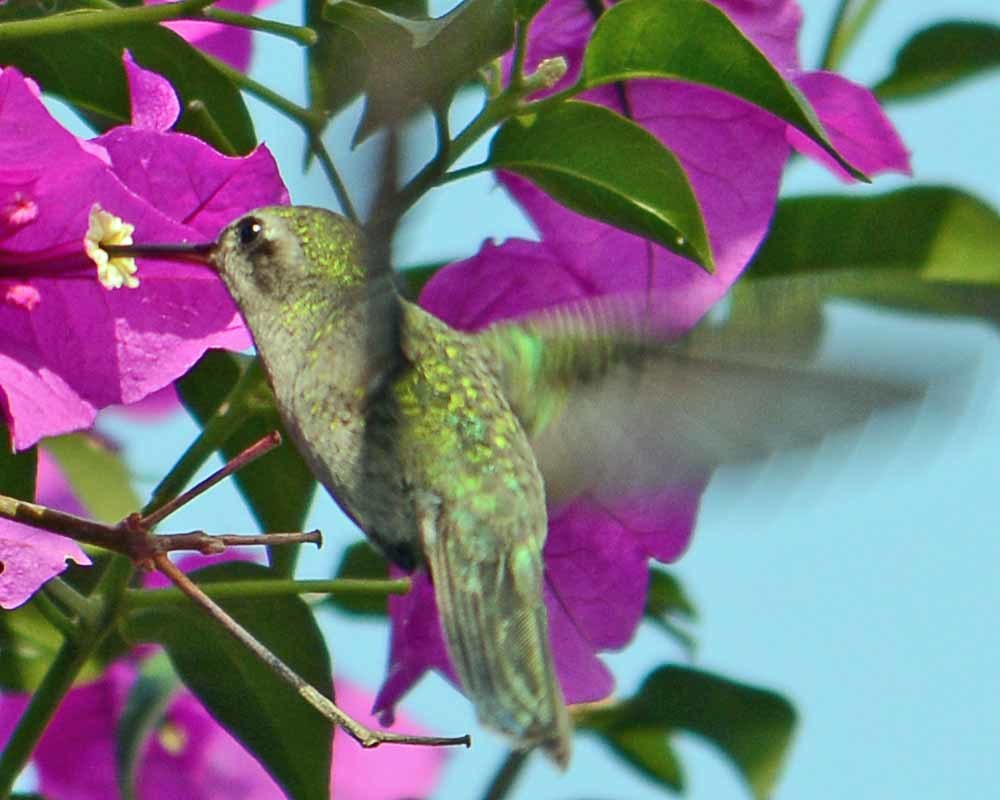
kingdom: Animalia
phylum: Chordata
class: Aves
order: Apodiformes
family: Trochilidae
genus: Cynanthus
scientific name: Cynanthus latirostris
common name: Broad-billed hummingbird
